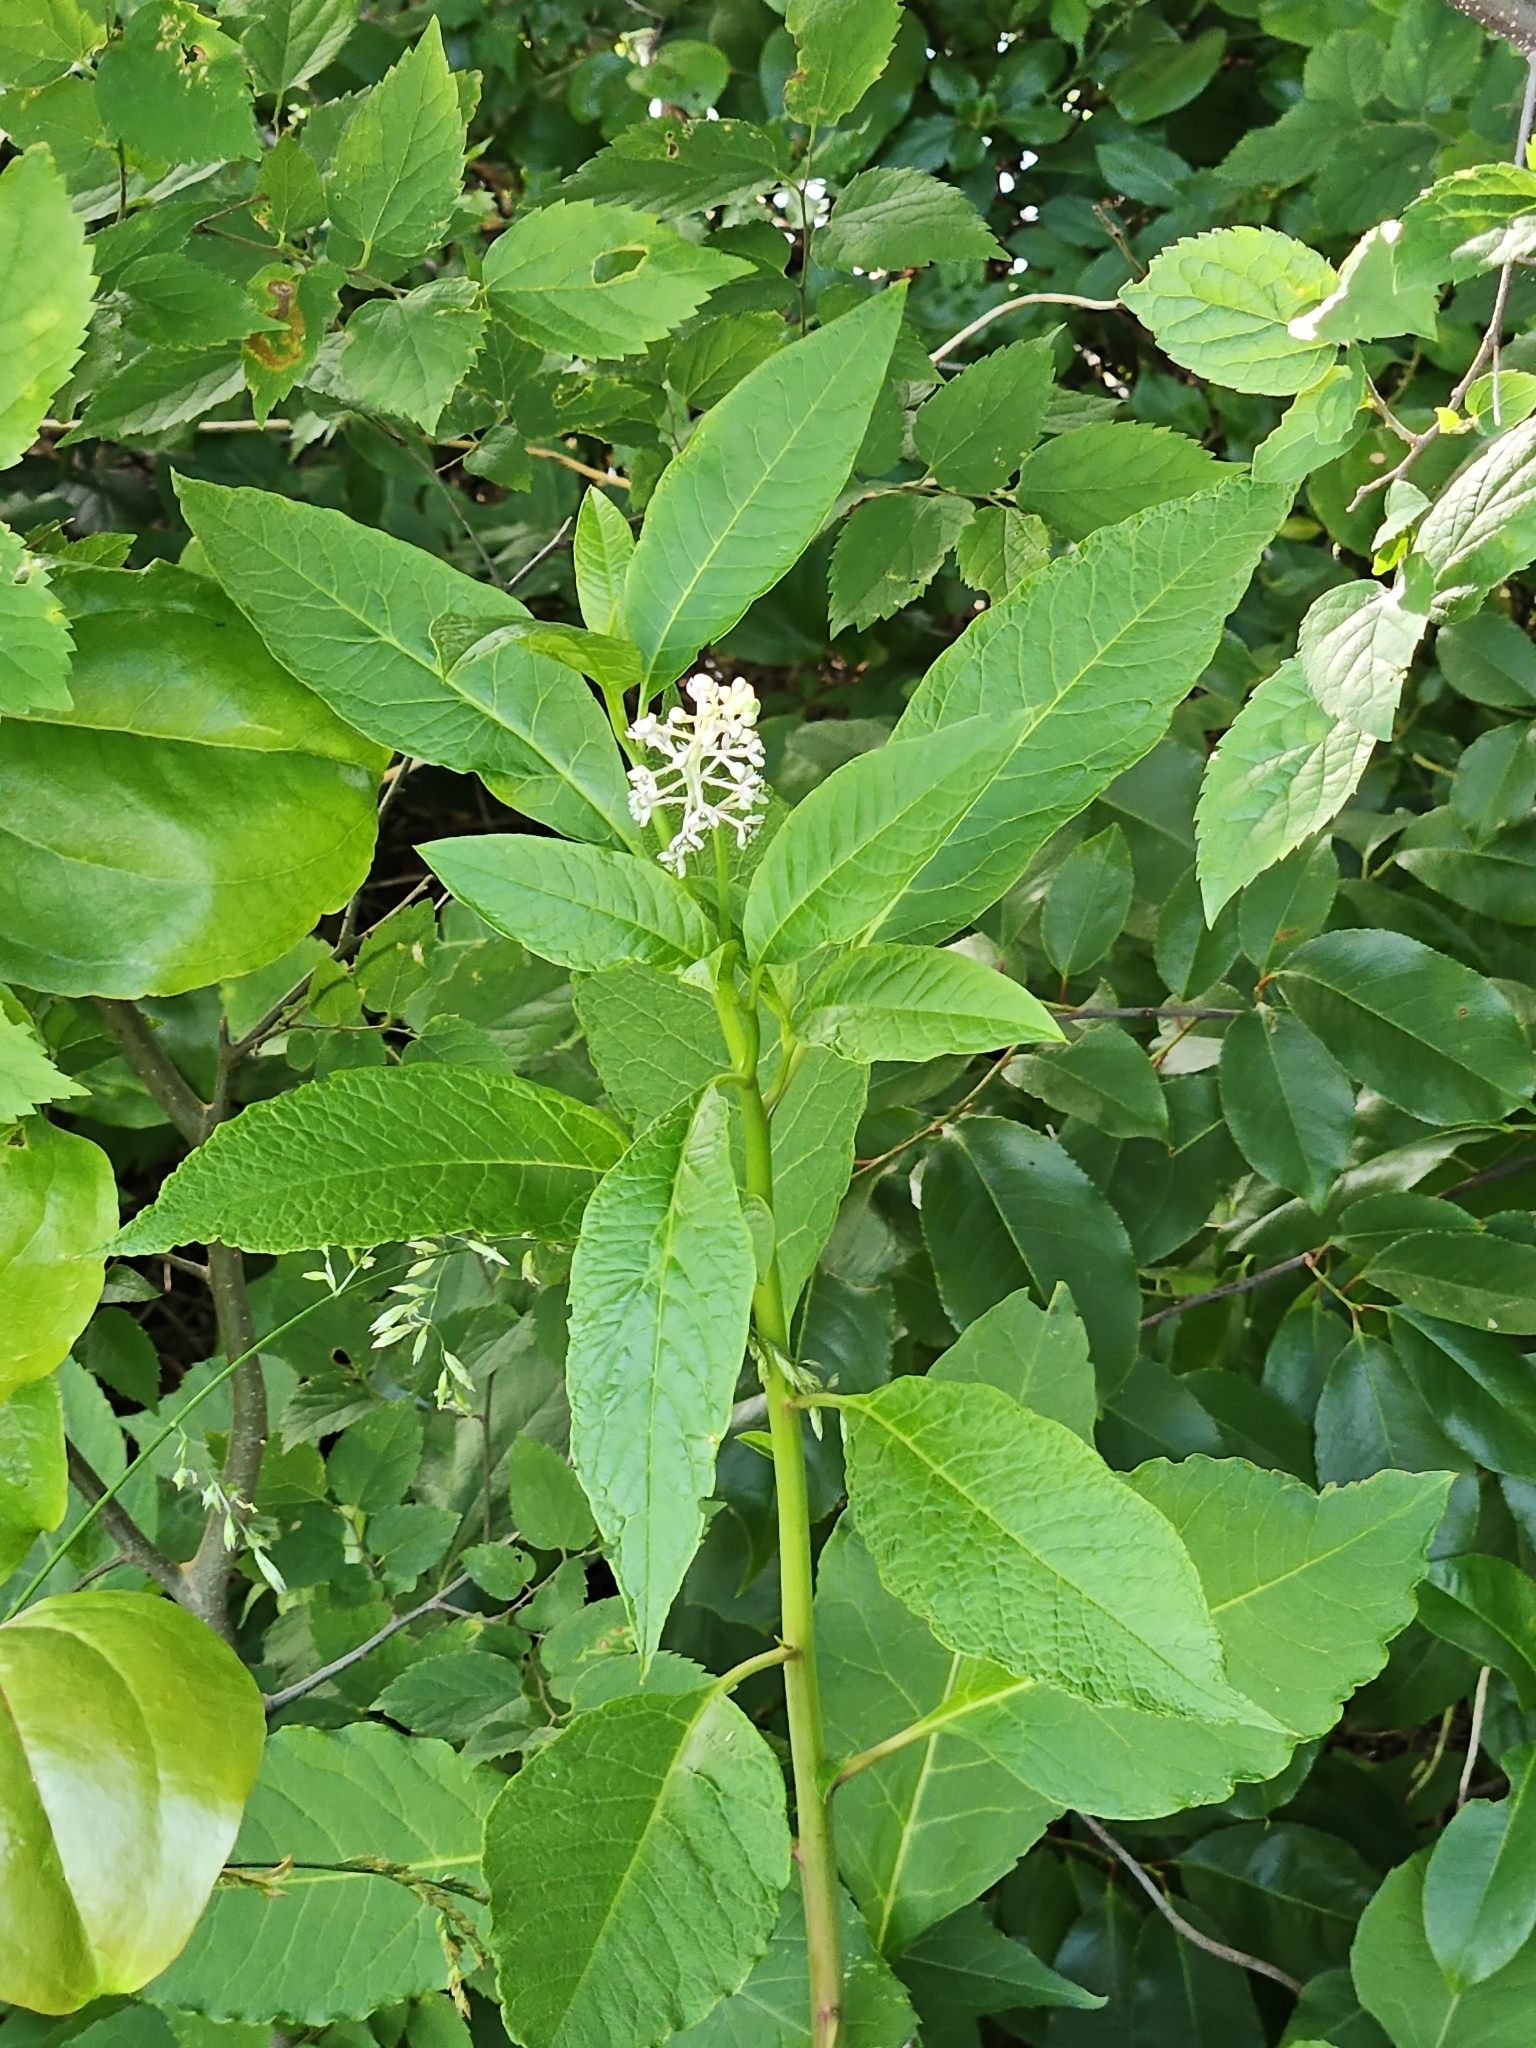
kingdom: Plantae
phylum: Tracheophyta
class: Magnoliopsida
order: Caryophyllales
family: Phytolaccaceae
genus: Phytolacca
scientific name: Phytolacca americana
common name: American pokeweed
